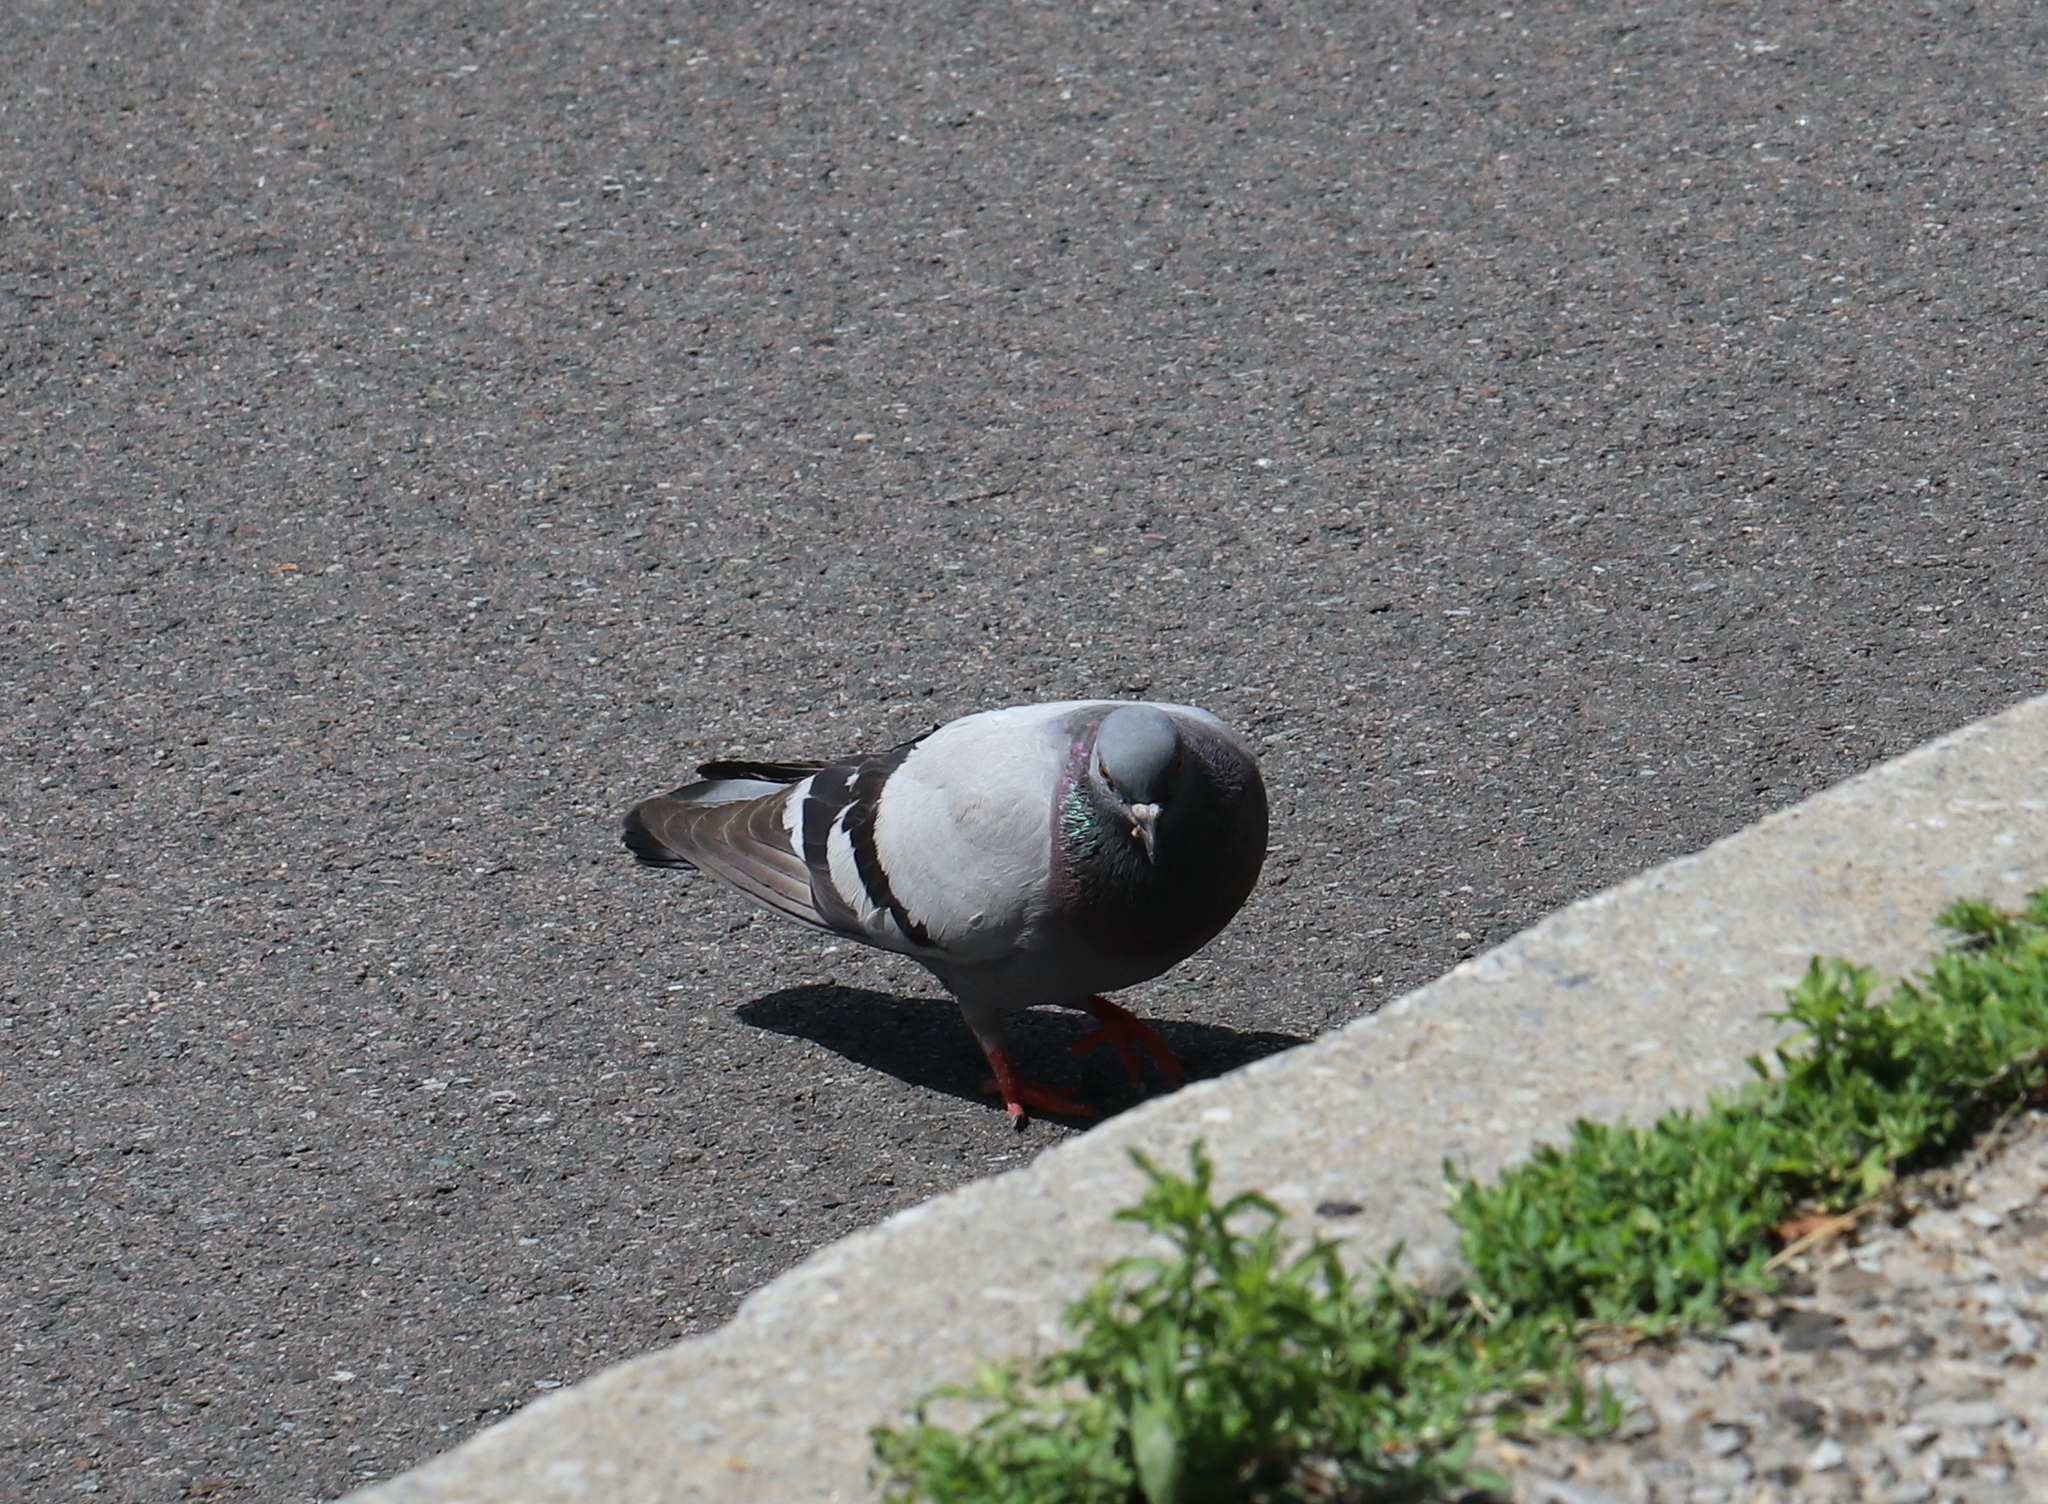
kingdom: Animalia
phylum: Chordata
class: Aves
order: Columbiformes
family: Columbidae
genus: Columba
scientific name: Columba livia
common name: Rock pigeon
